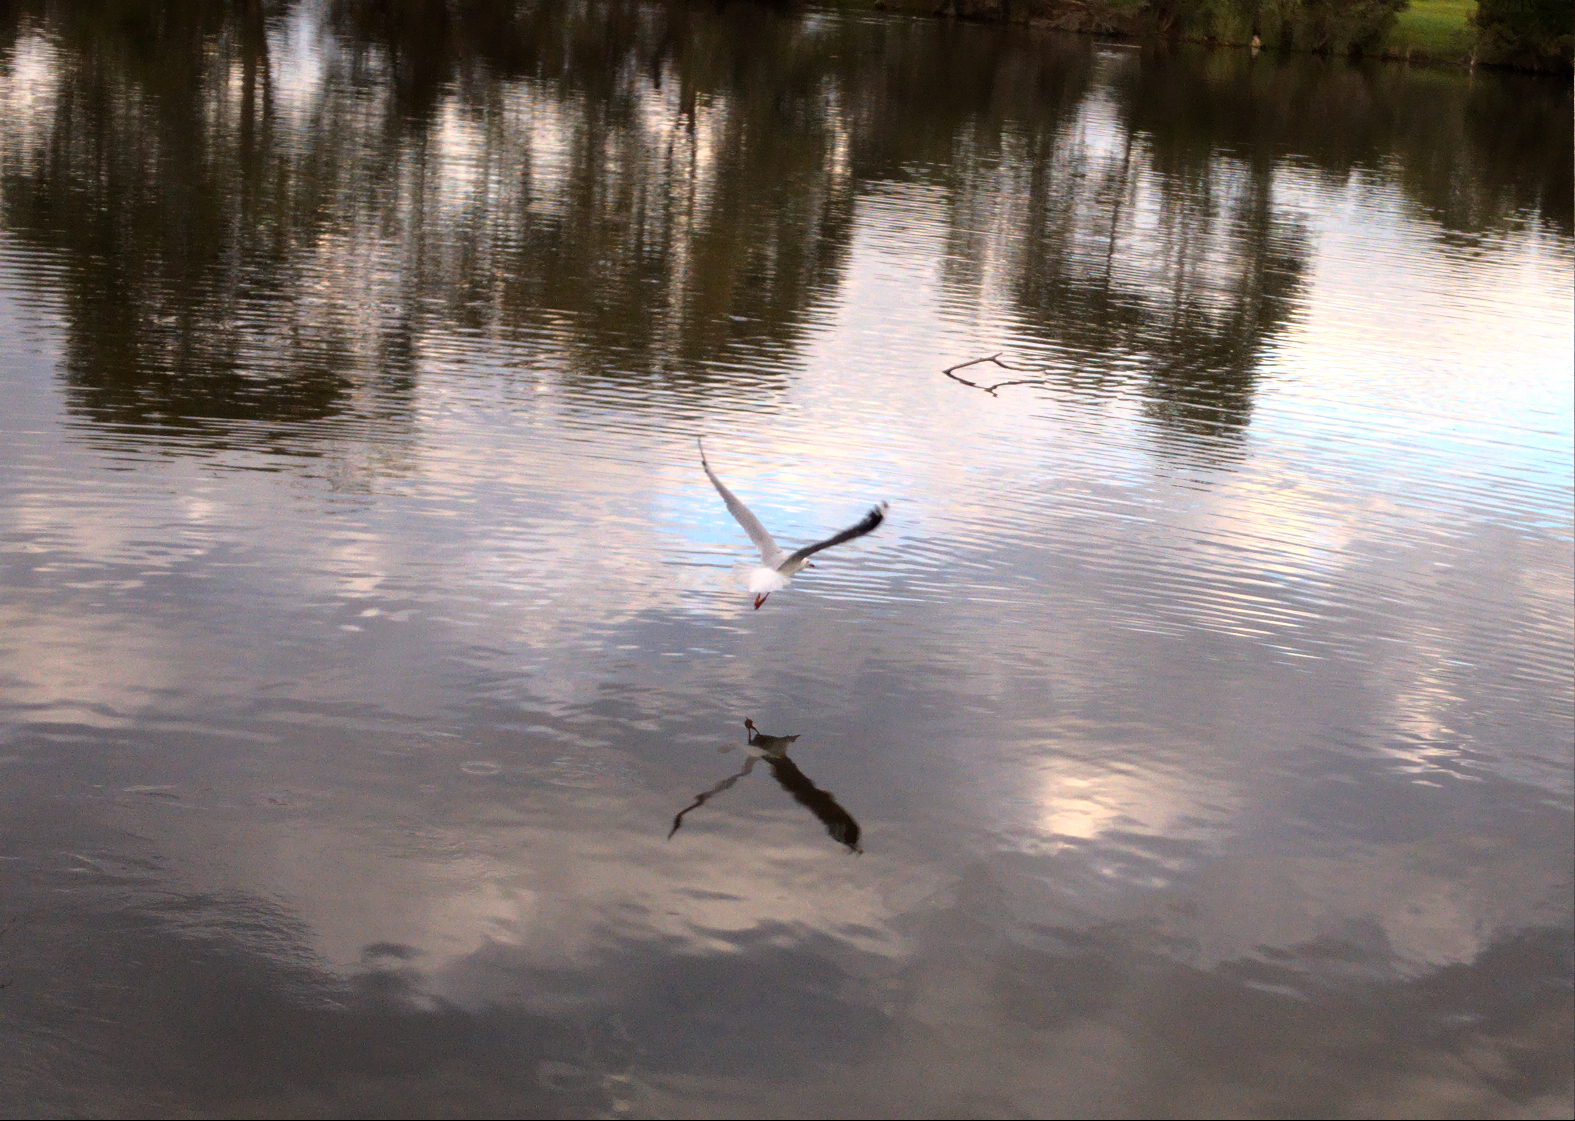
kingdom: Animalia
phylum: Chordata
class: Aves
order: Charadriiformes
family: Laridae
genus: Chroicocephalus
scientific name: Chroicocephalus novaehollandiae
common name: Silver gull
